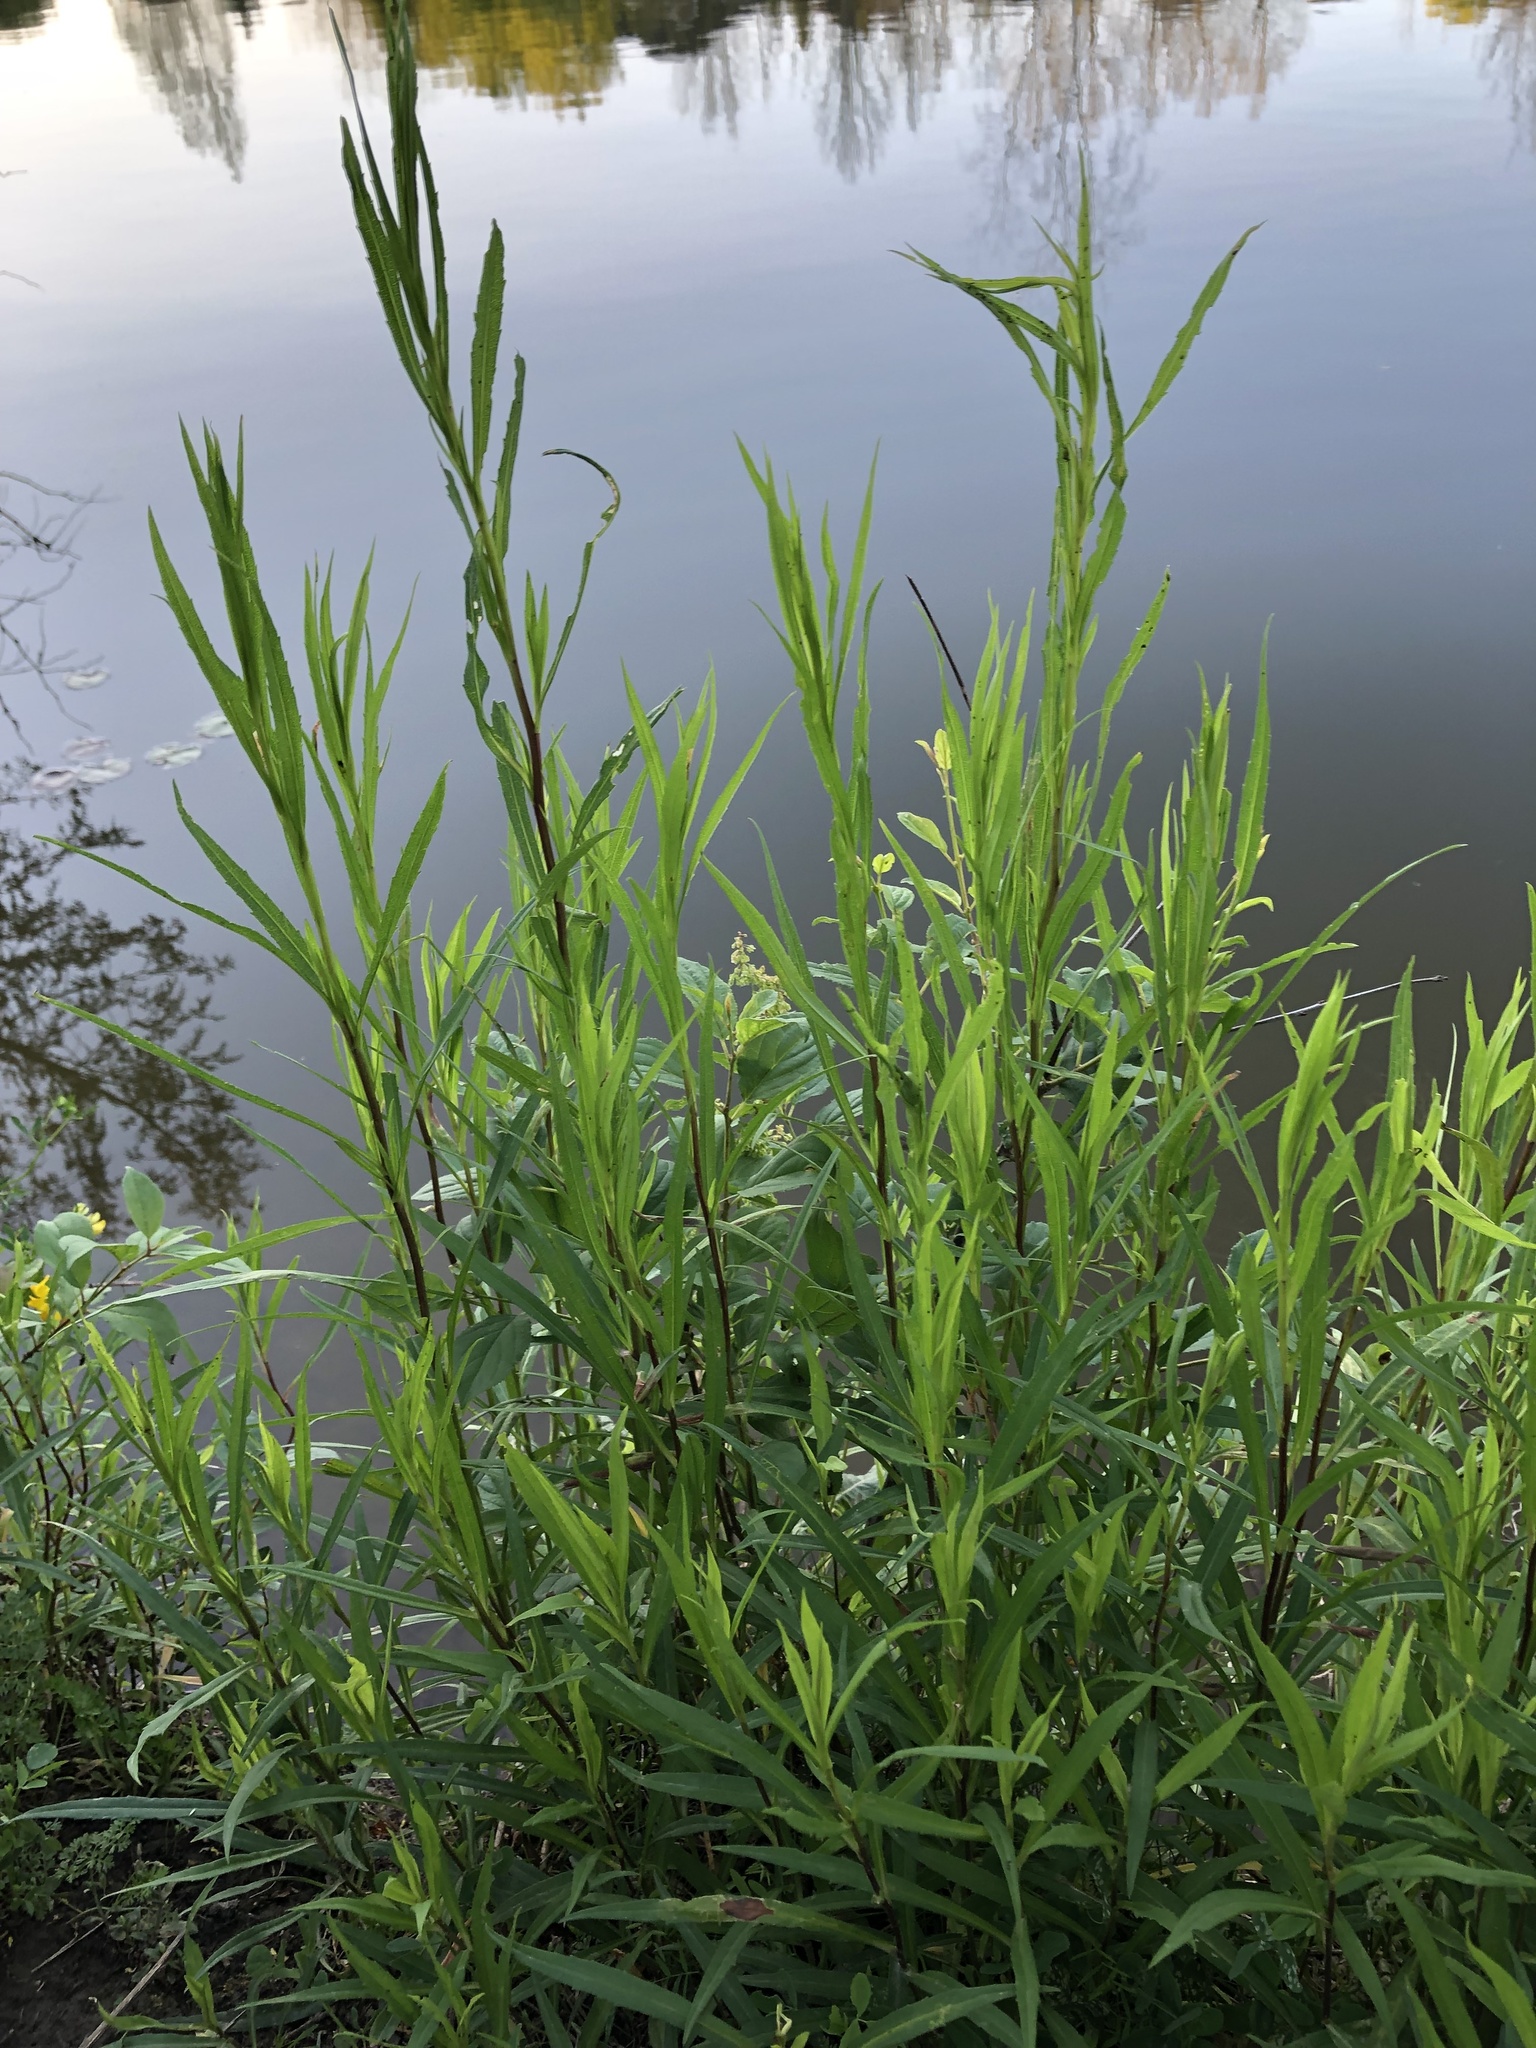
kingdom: Plantae
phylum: Tracheophyta
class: Magnoliopsida
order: Malpighiales
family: Salicaceae
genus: Salix
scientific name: Salix interior
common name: Sandbar willow
